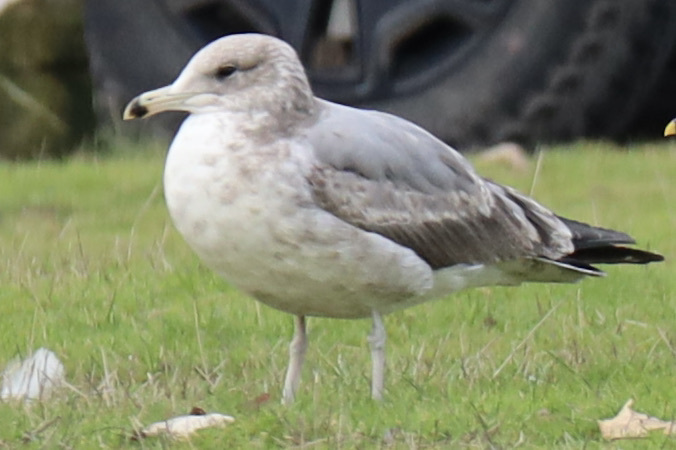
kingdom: Animalia
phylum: Chordata
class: Aves
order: Charadriiformes
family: Laridae
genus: Larus
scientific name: Larus californicus
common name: California gull
